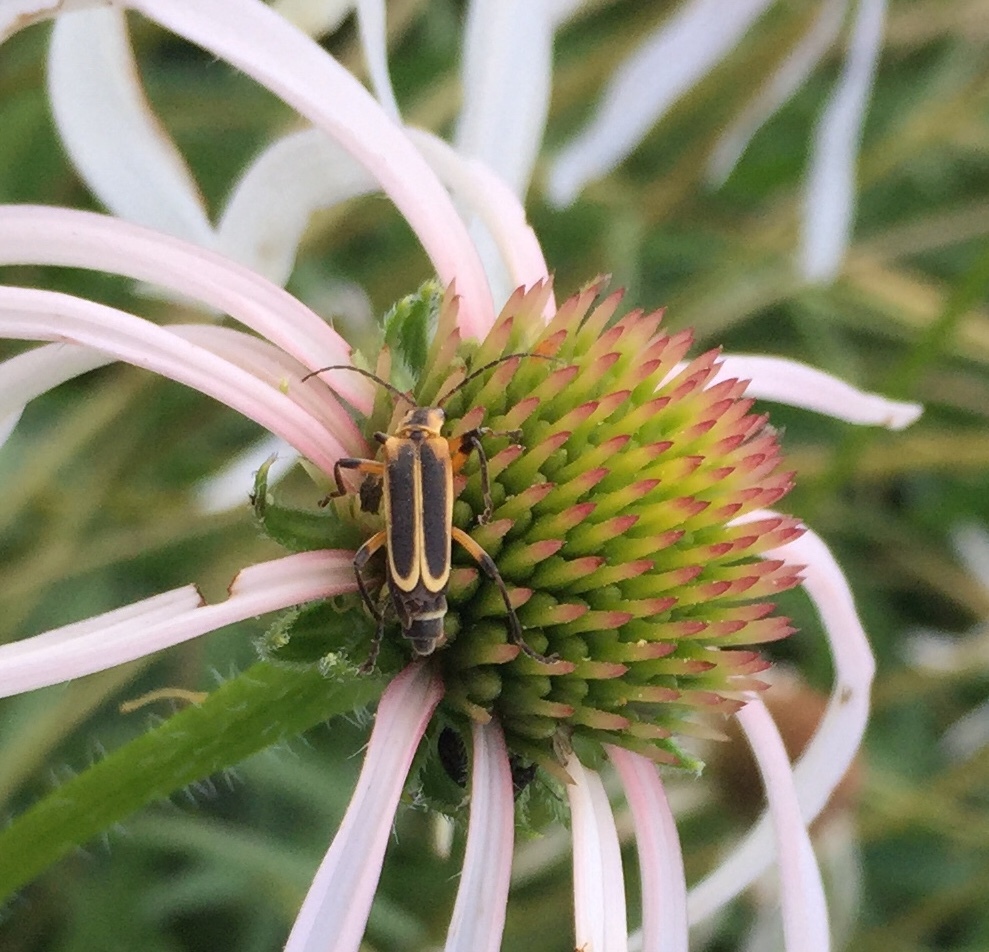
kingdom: Animalia
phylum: Arthropoda
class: Insecta
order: Coleoptera
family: Cantharidae
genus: Chauliognathus
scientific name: Chauliognathus marginatus
